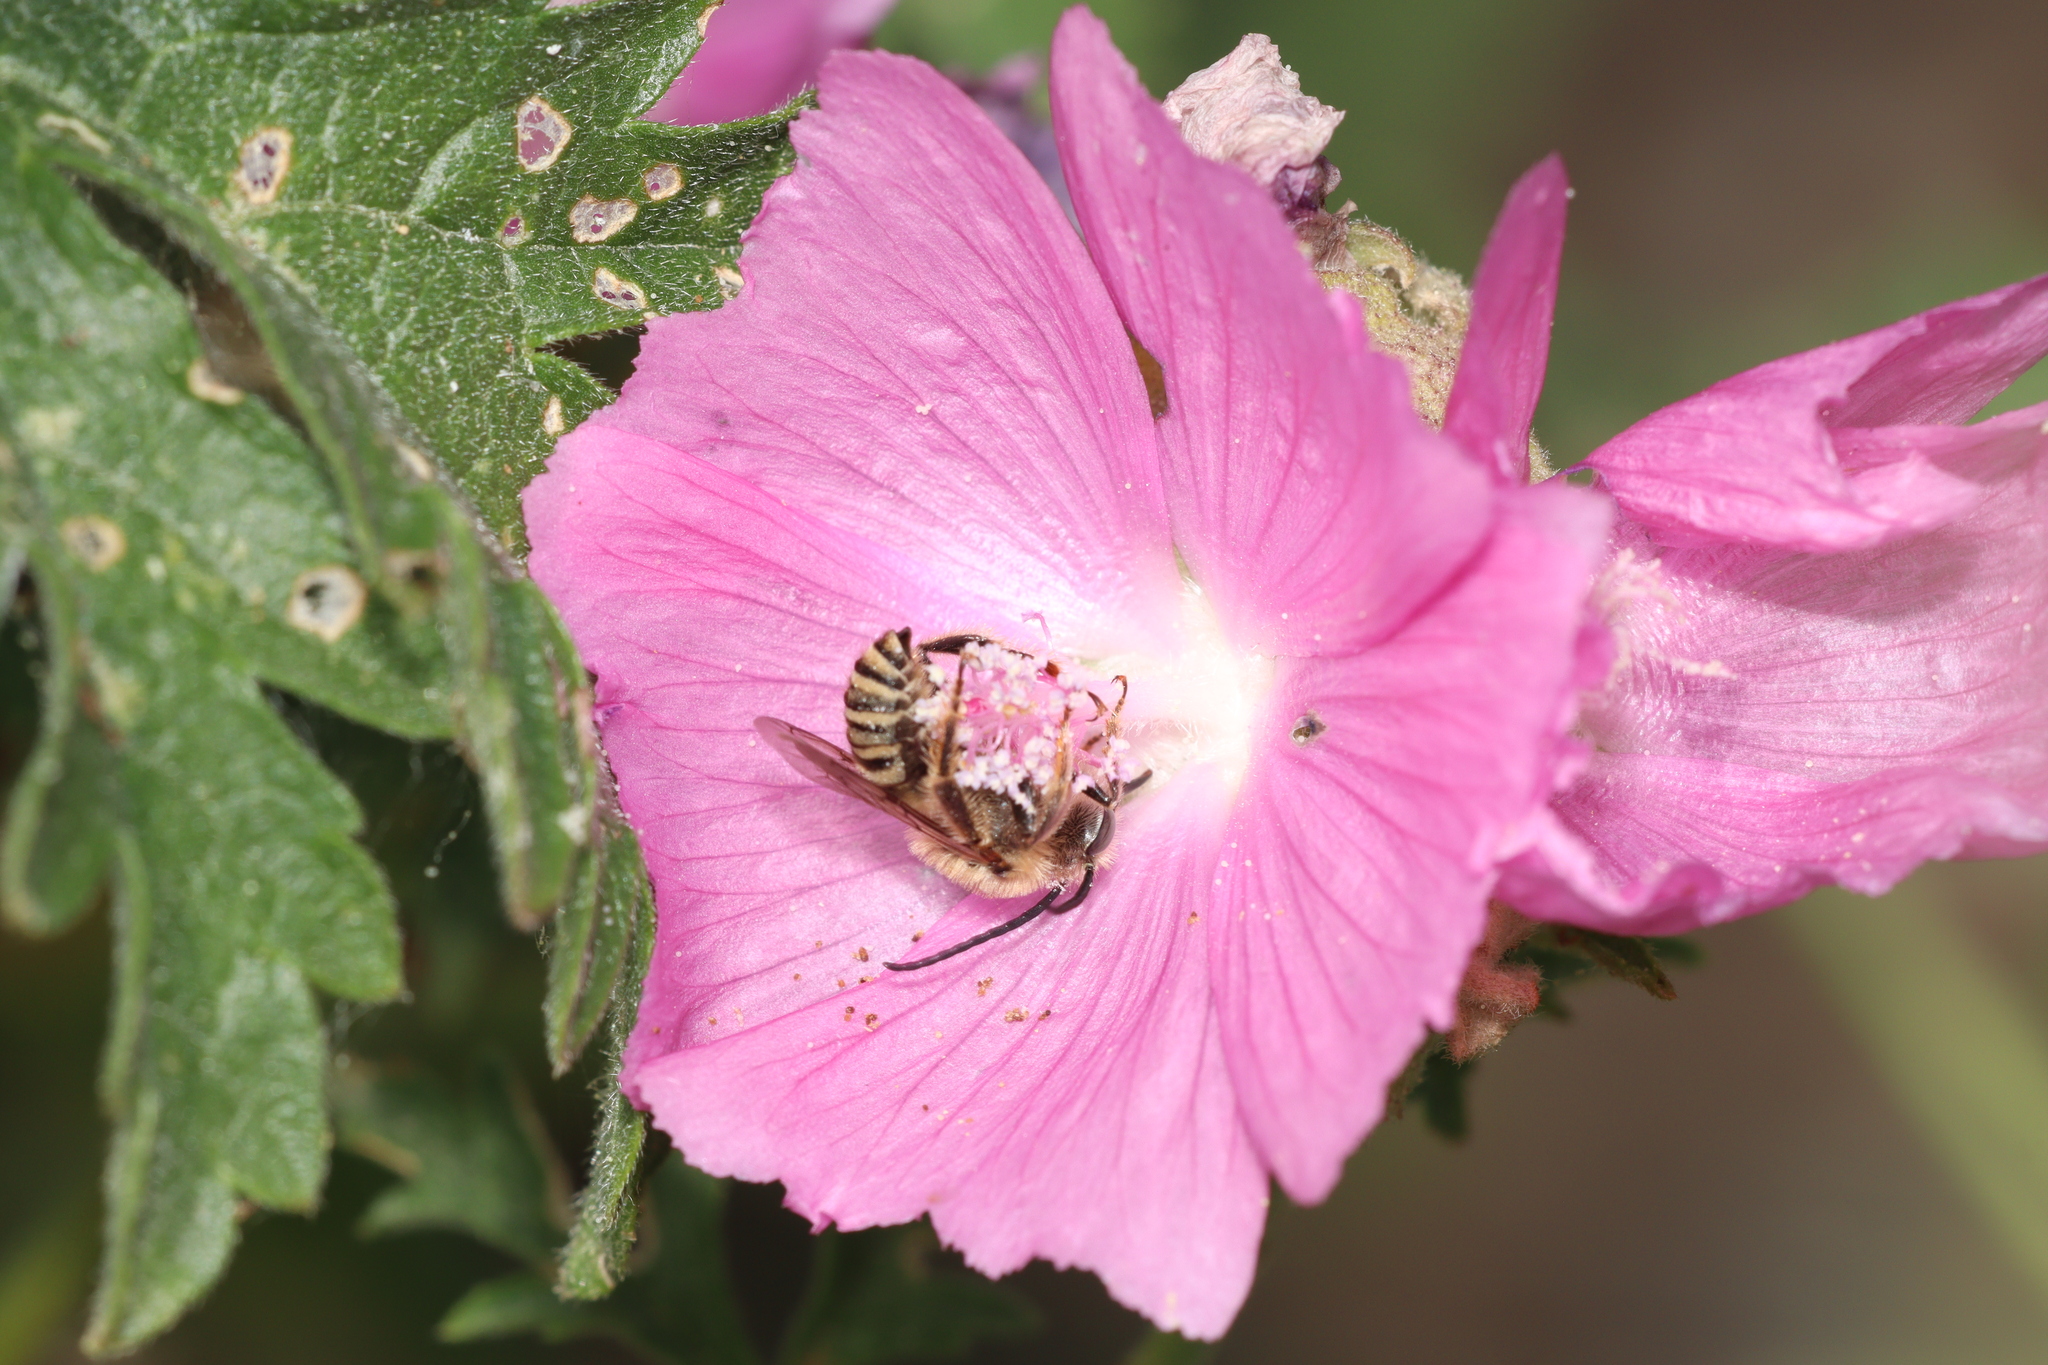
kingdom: Animalia
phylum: Arthropoda
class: Insecta
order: Hymenoptera
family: Apidae
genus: Tetralonia
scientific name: Tetralonia malvae
